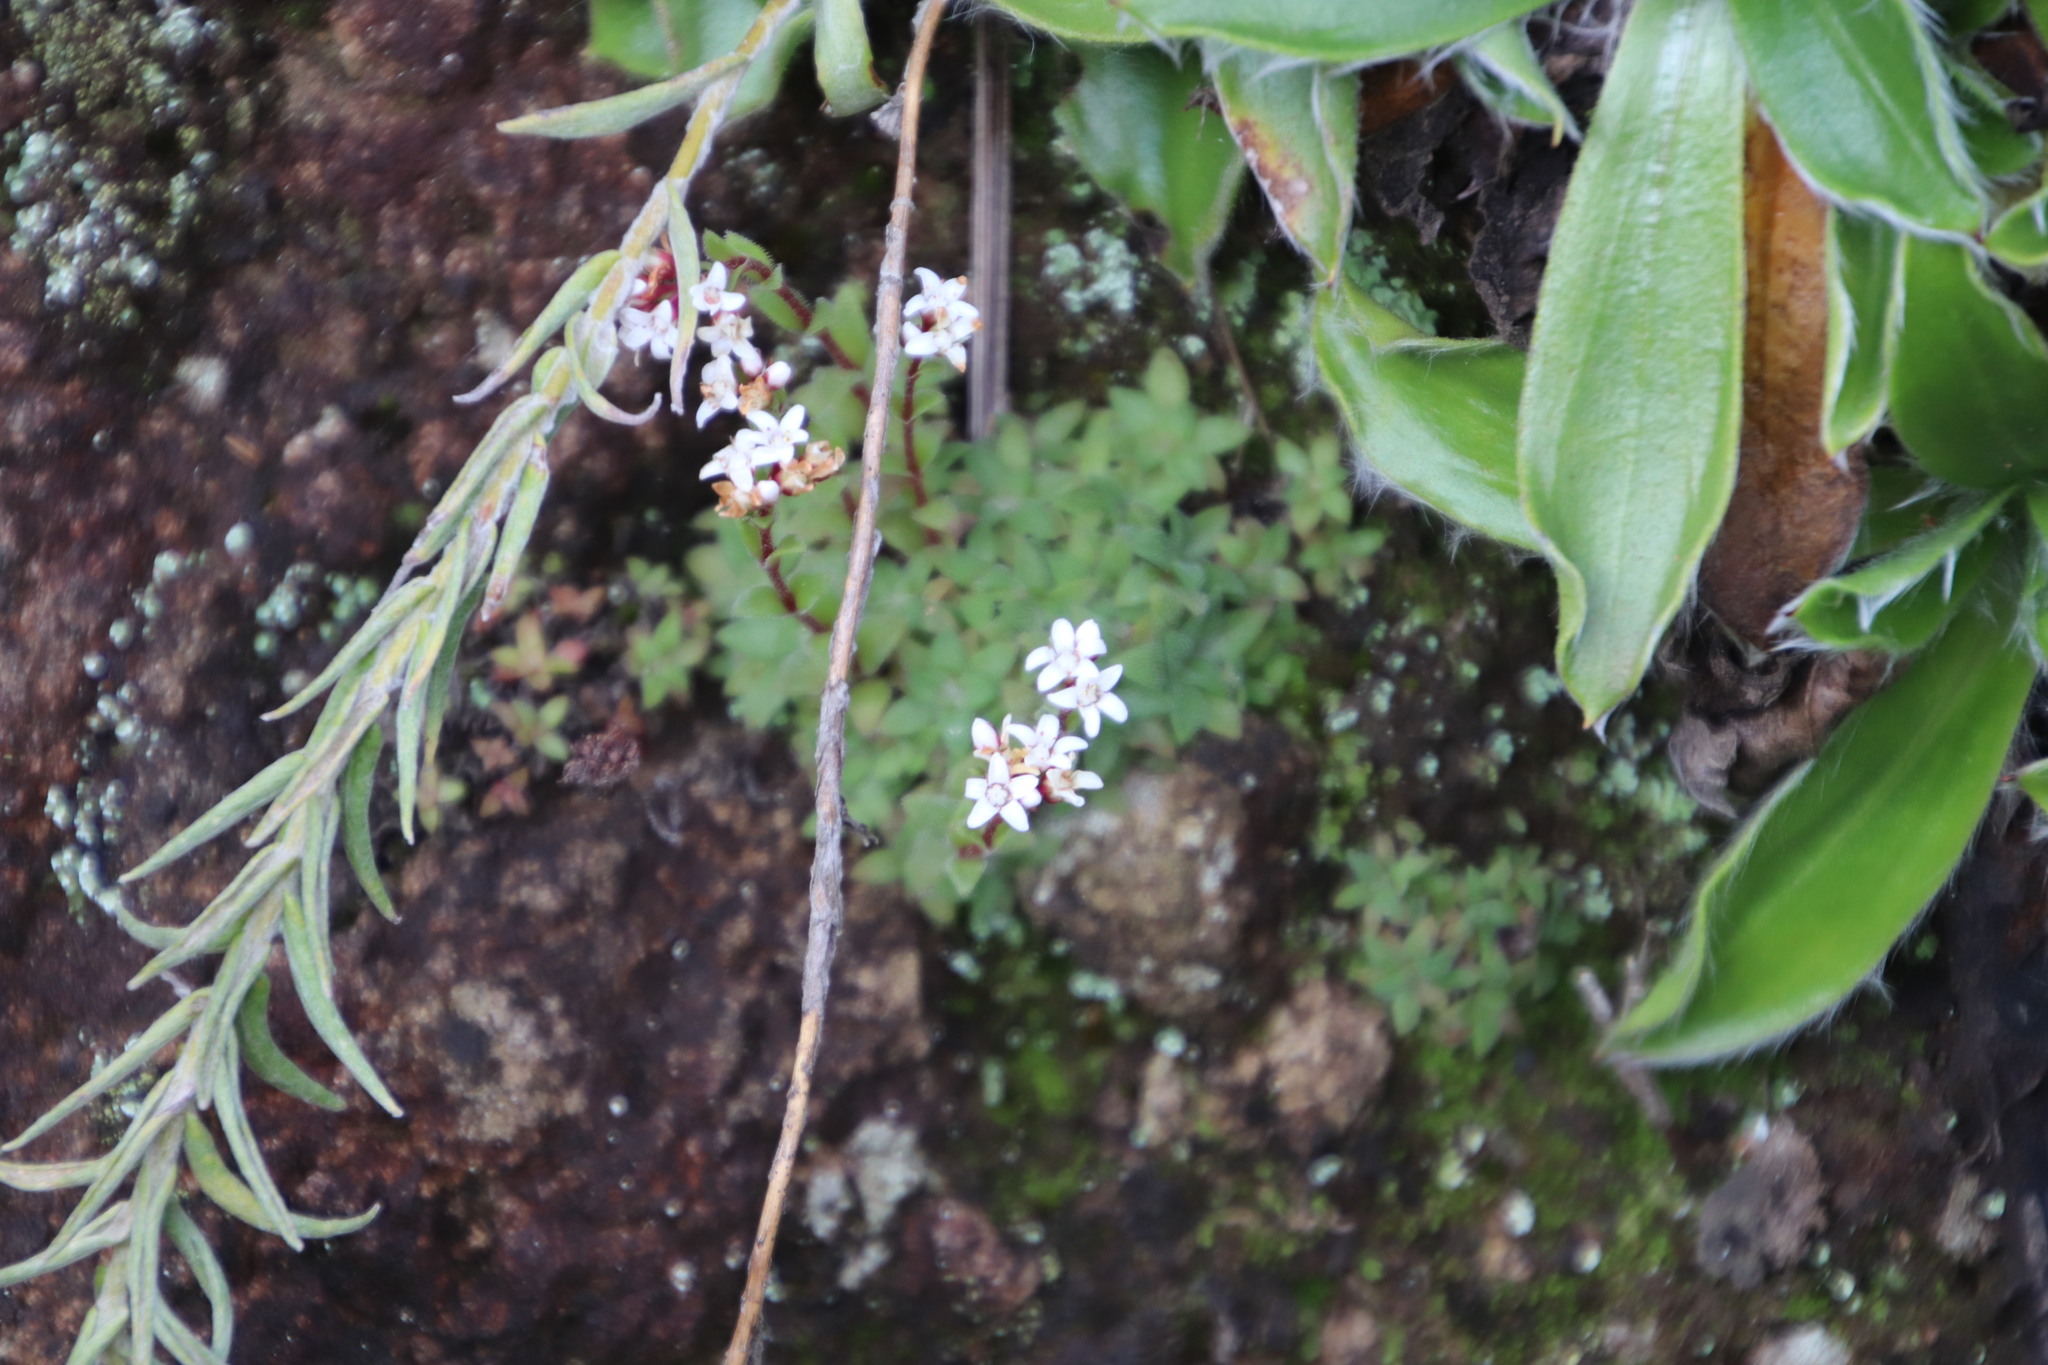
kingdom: Plantae
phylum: Tracheophyta
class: Magnoliopsida
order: Saxifragales
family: Crassulaceae
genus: Crassula
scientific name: Crassula setulosa
